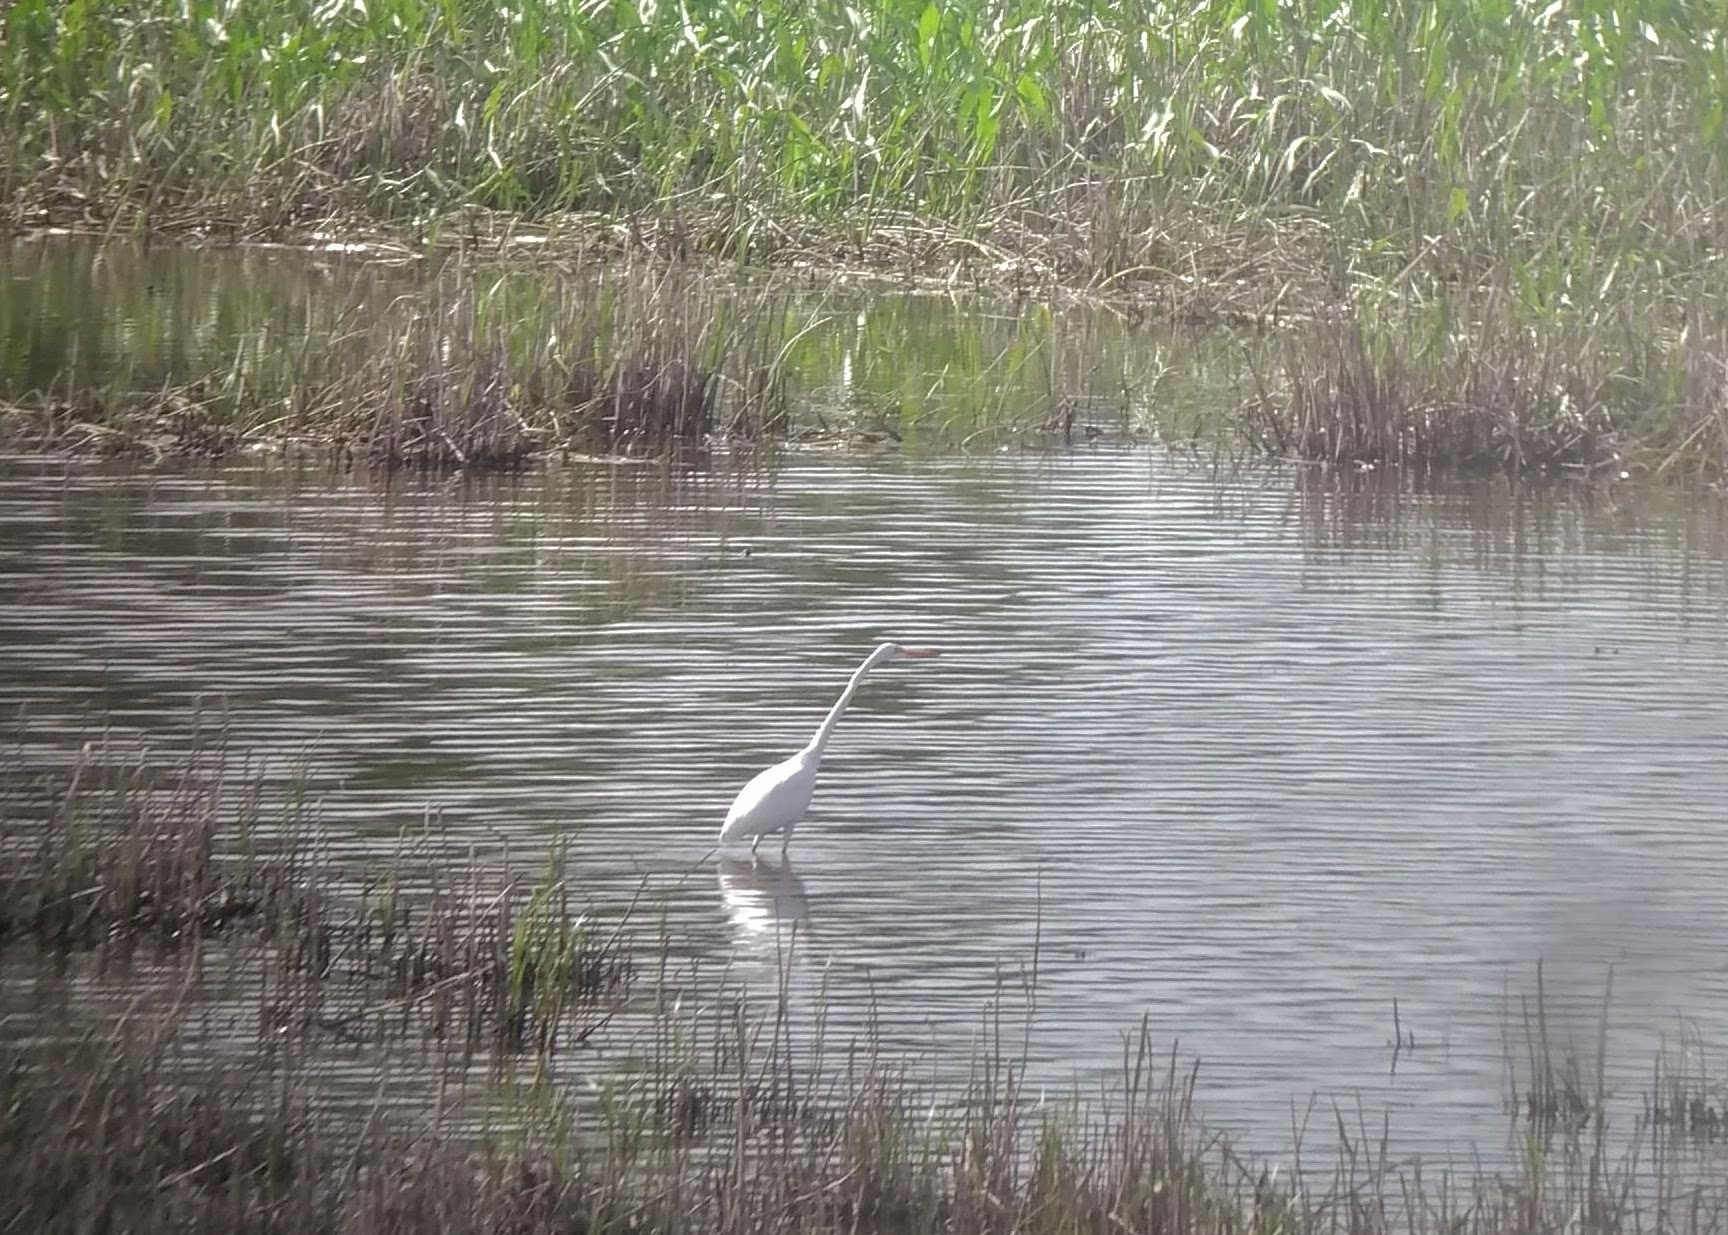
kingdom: Animalia
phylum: Chordata
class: Aves
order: Pelecaniformes
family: Ardeidae
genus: Ardea
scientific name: Ardea alba
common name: Great egret
